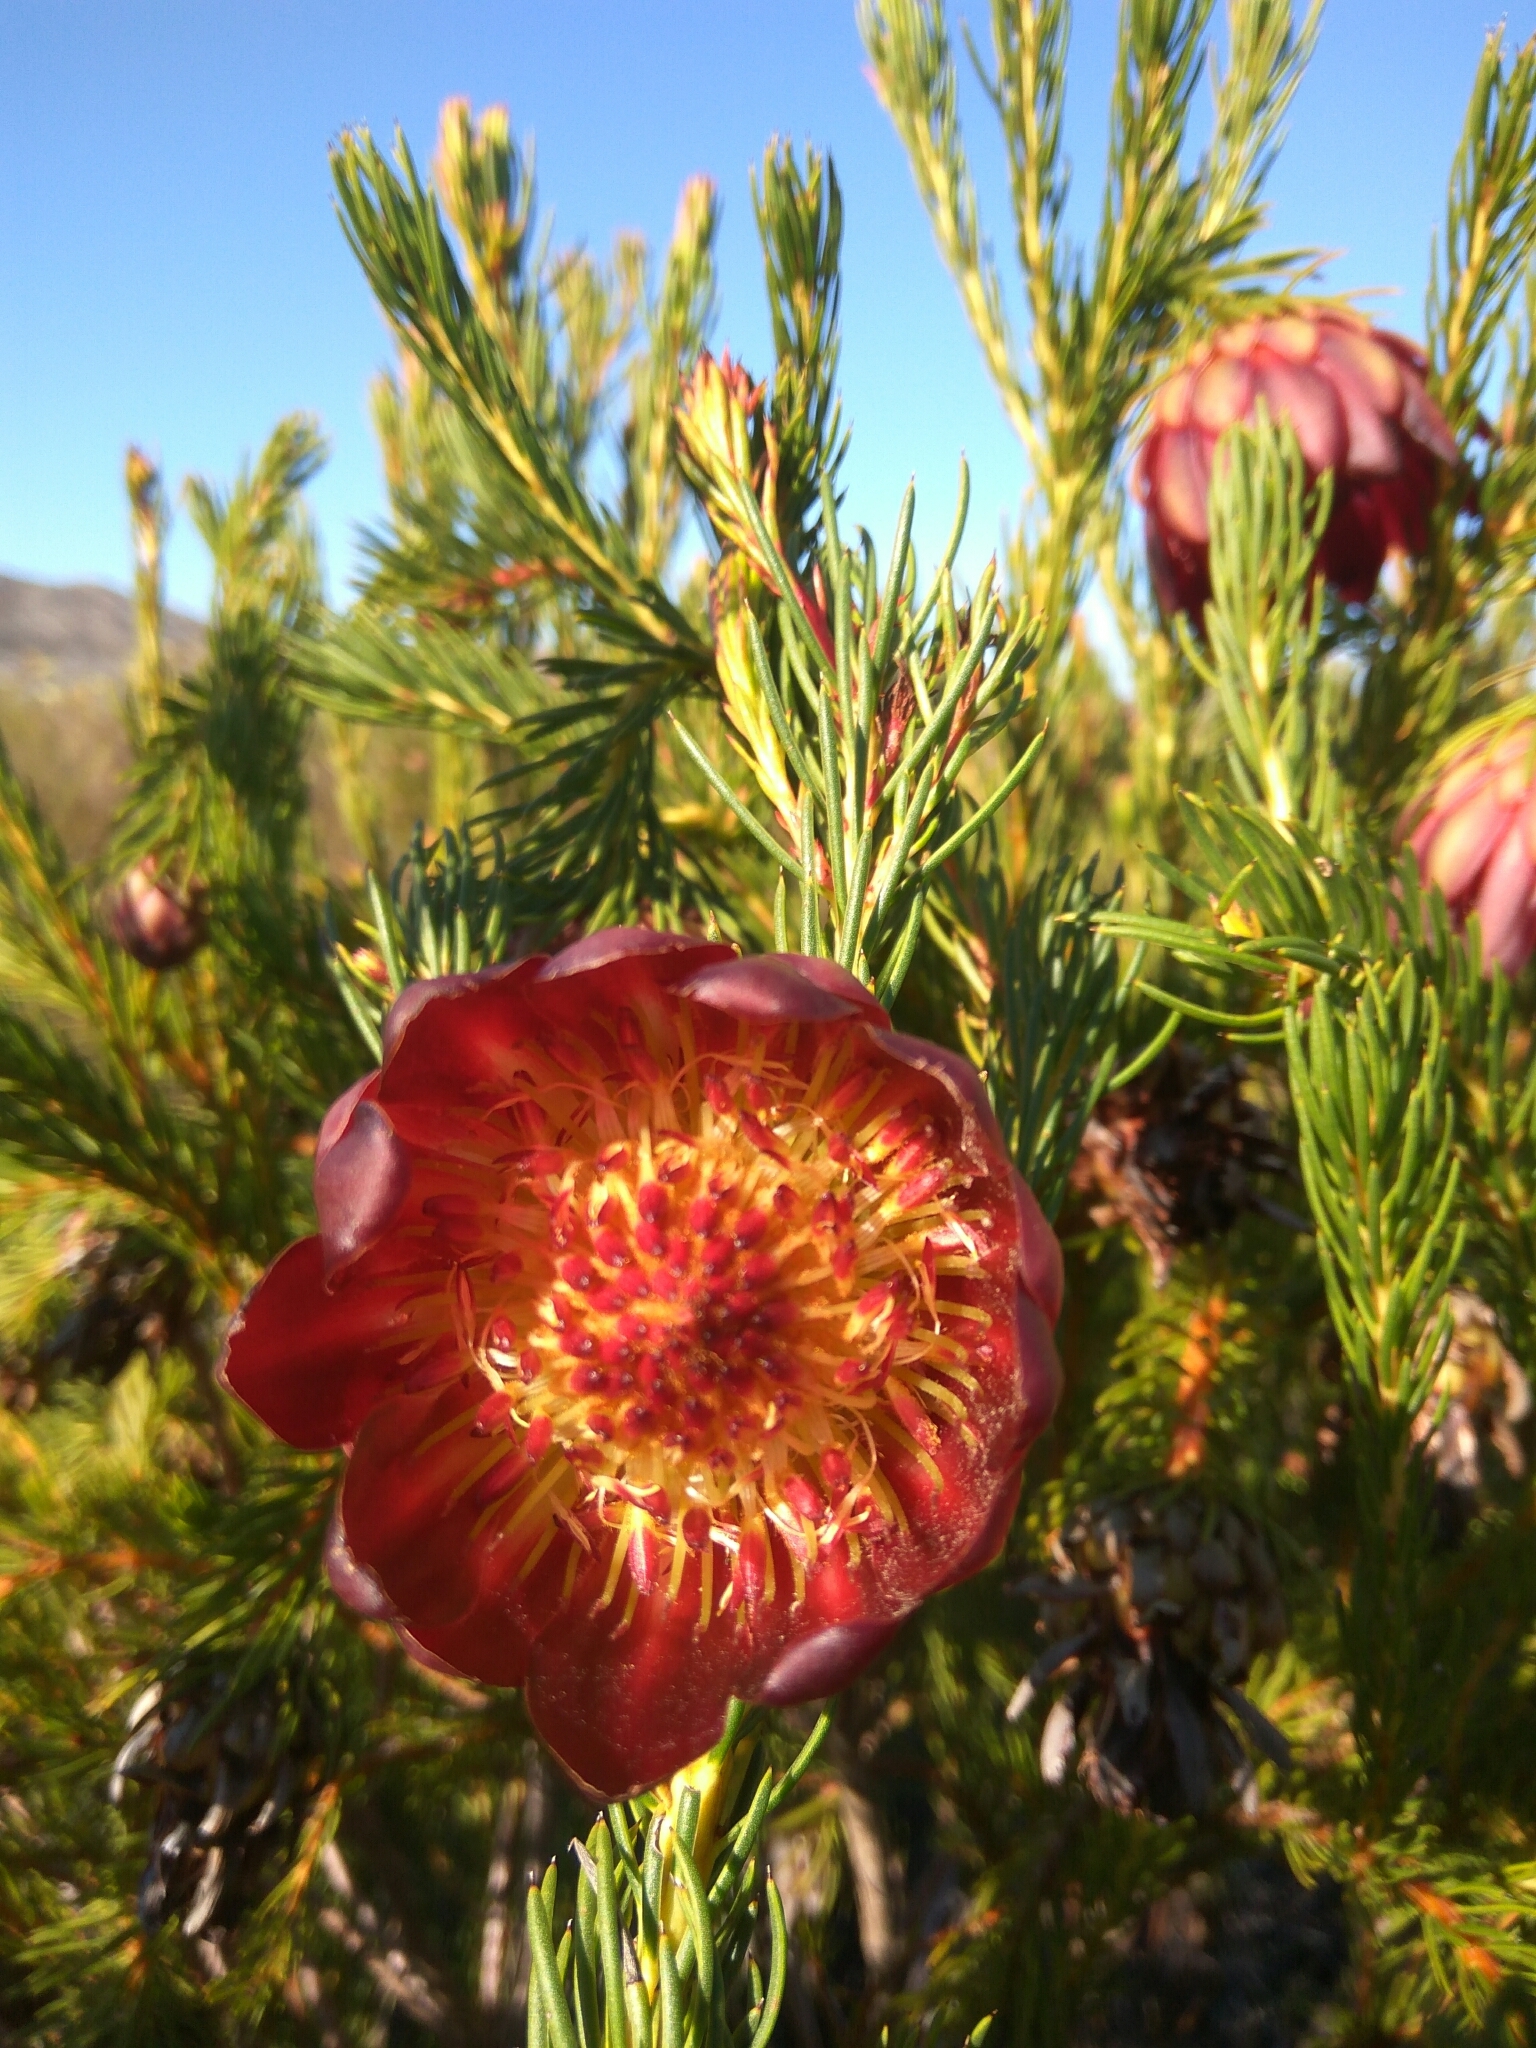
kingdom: Plantae
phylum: Tracheophyta
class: Magnoliopsida
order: Proteales
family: Proteaceae
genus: Protea
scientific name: Protea nana
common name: Mountain rose
